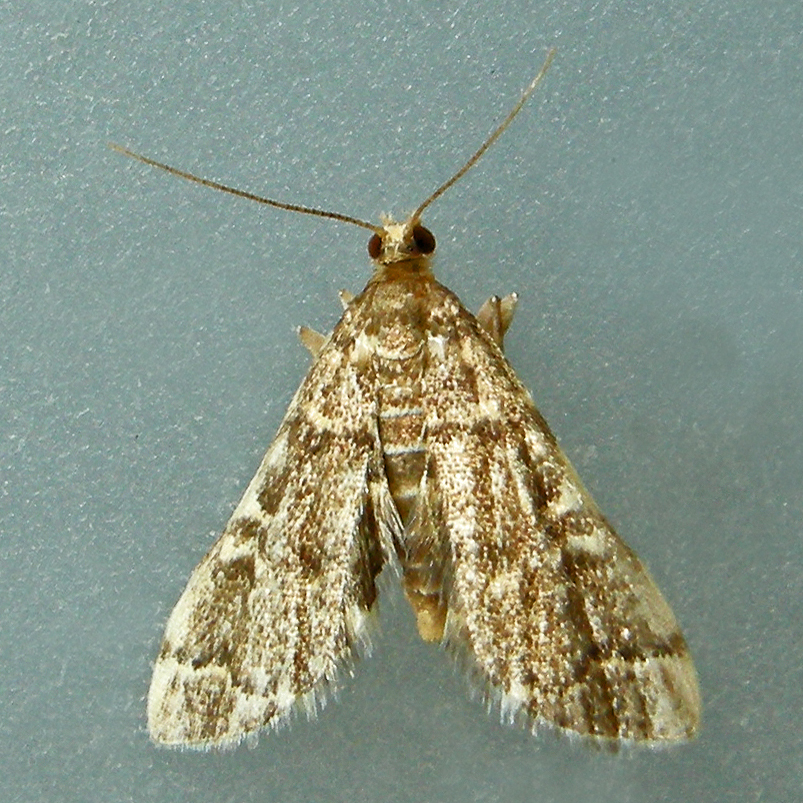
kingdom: Animalia
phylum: Arthropoda
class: Insecta
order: Lepidoptera
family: Crambidae
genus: Anageshna
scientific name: Anageshna primordialis
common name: Yellow-spotted webworm moth
